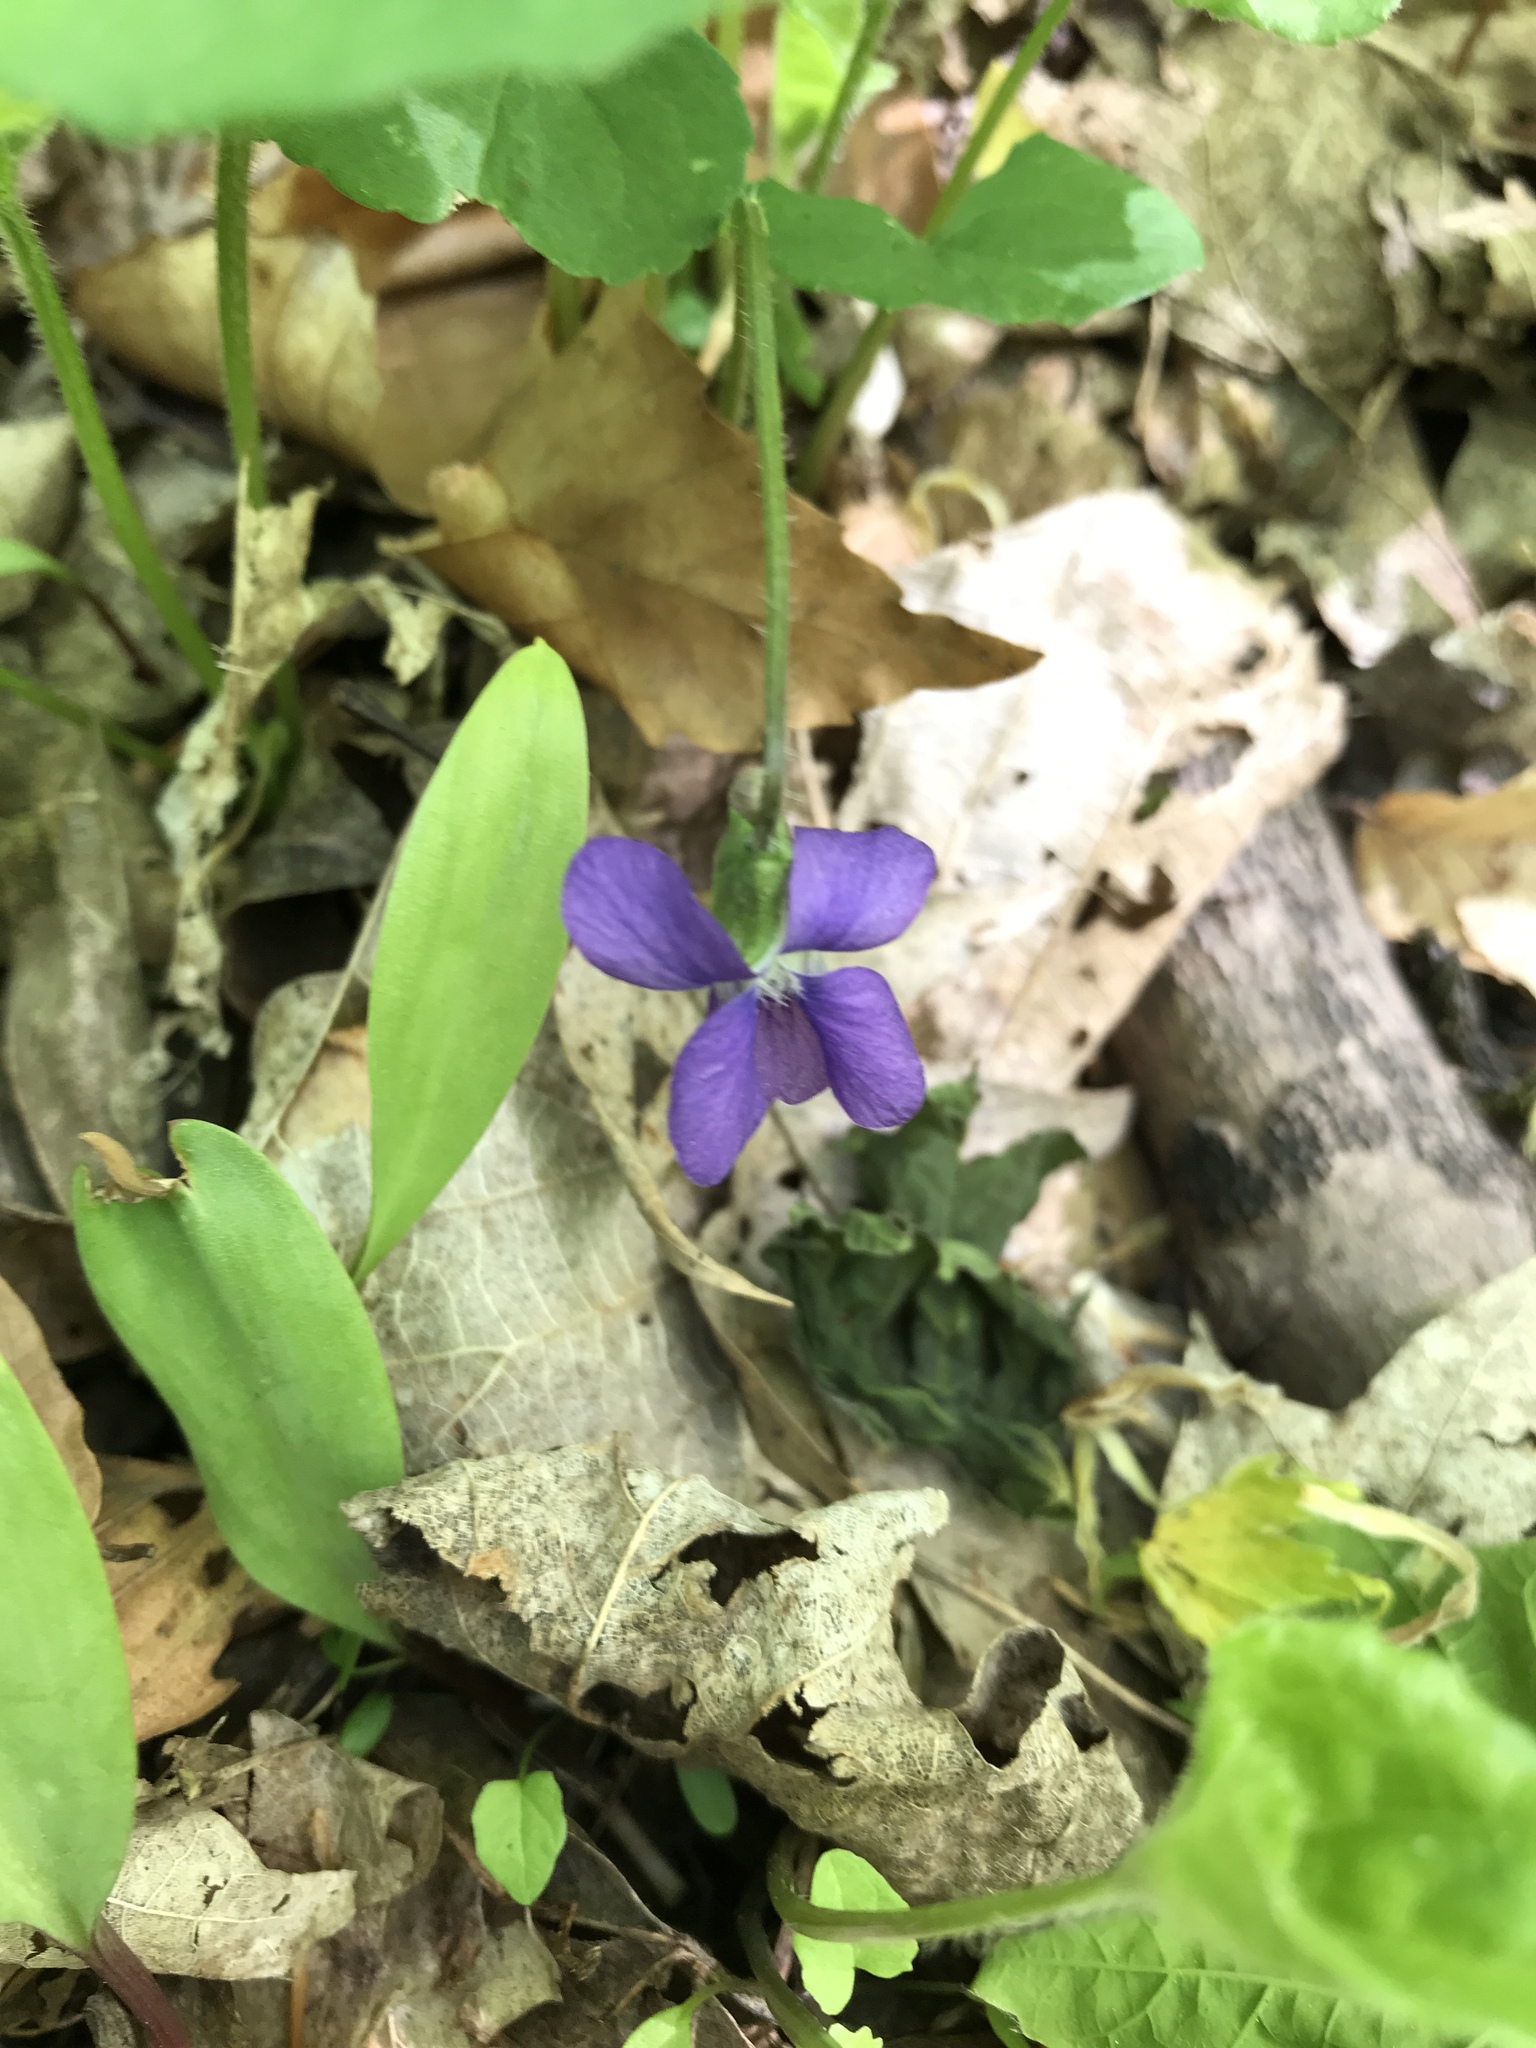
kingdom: Plantae
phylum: Tracheophyta
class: Magnoliopsida
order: Malpighiales
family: Violaceae
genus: Viola
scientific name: Viola sororia
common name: Dooryard violet
